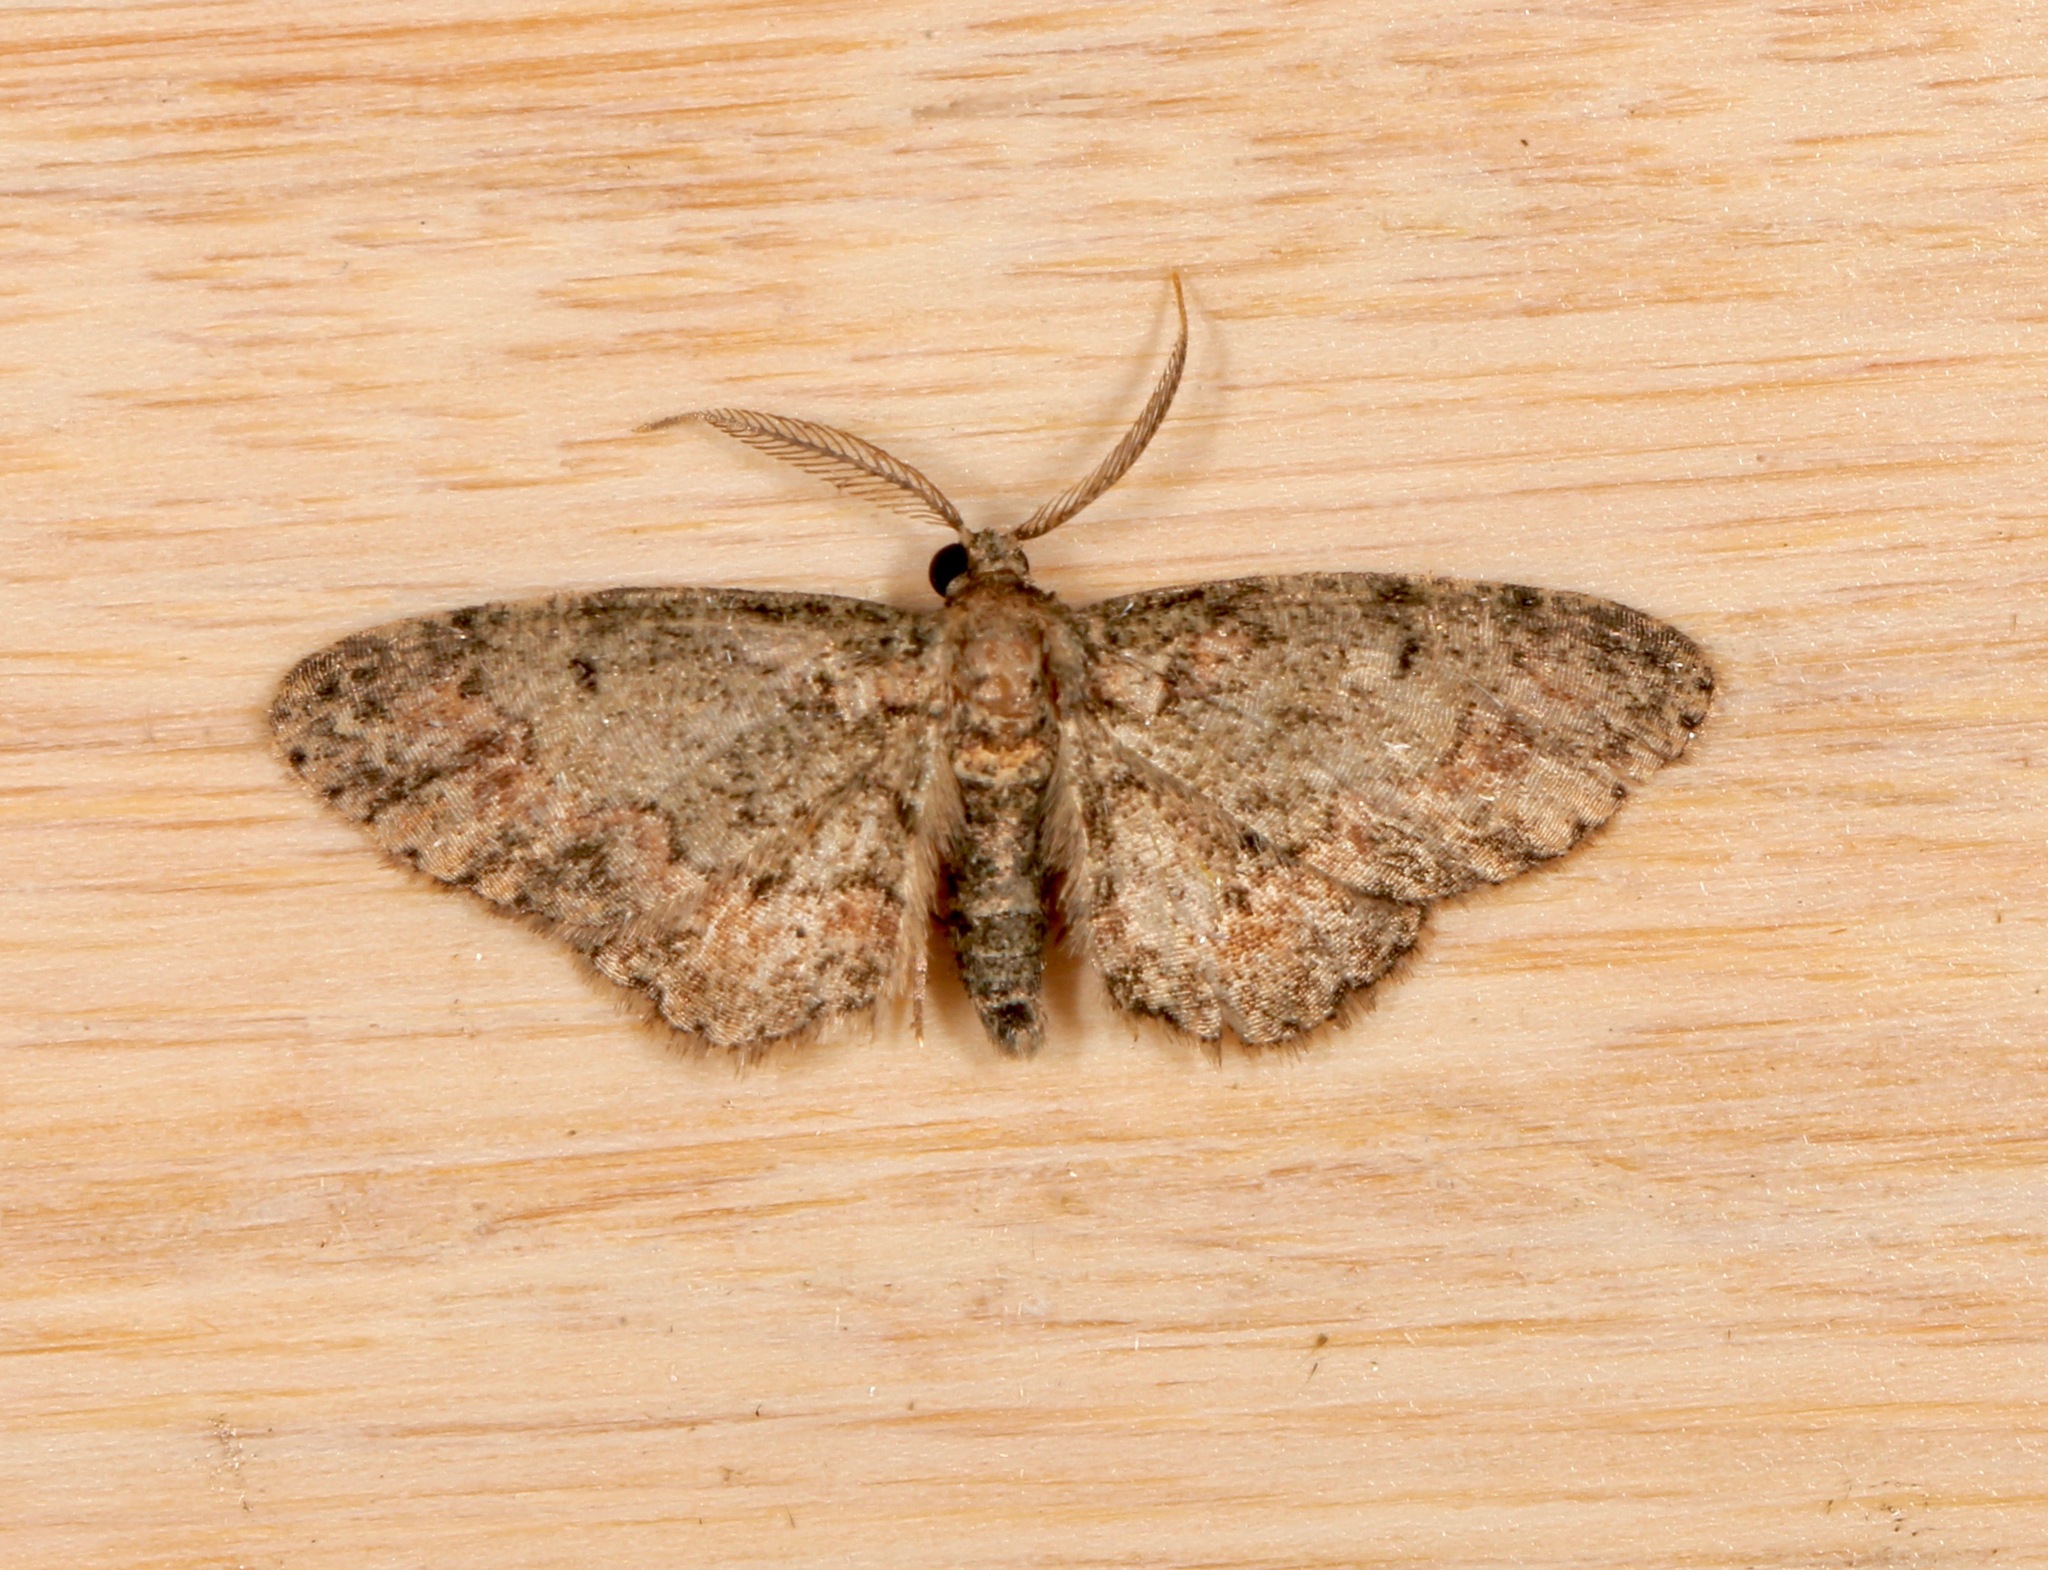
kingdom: Animalia
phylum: Arthropoda
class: Insecta
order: Lepidoptera
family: Geometridae
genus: Glenoides
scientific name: Glenoides texanaria
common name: Texas gray
